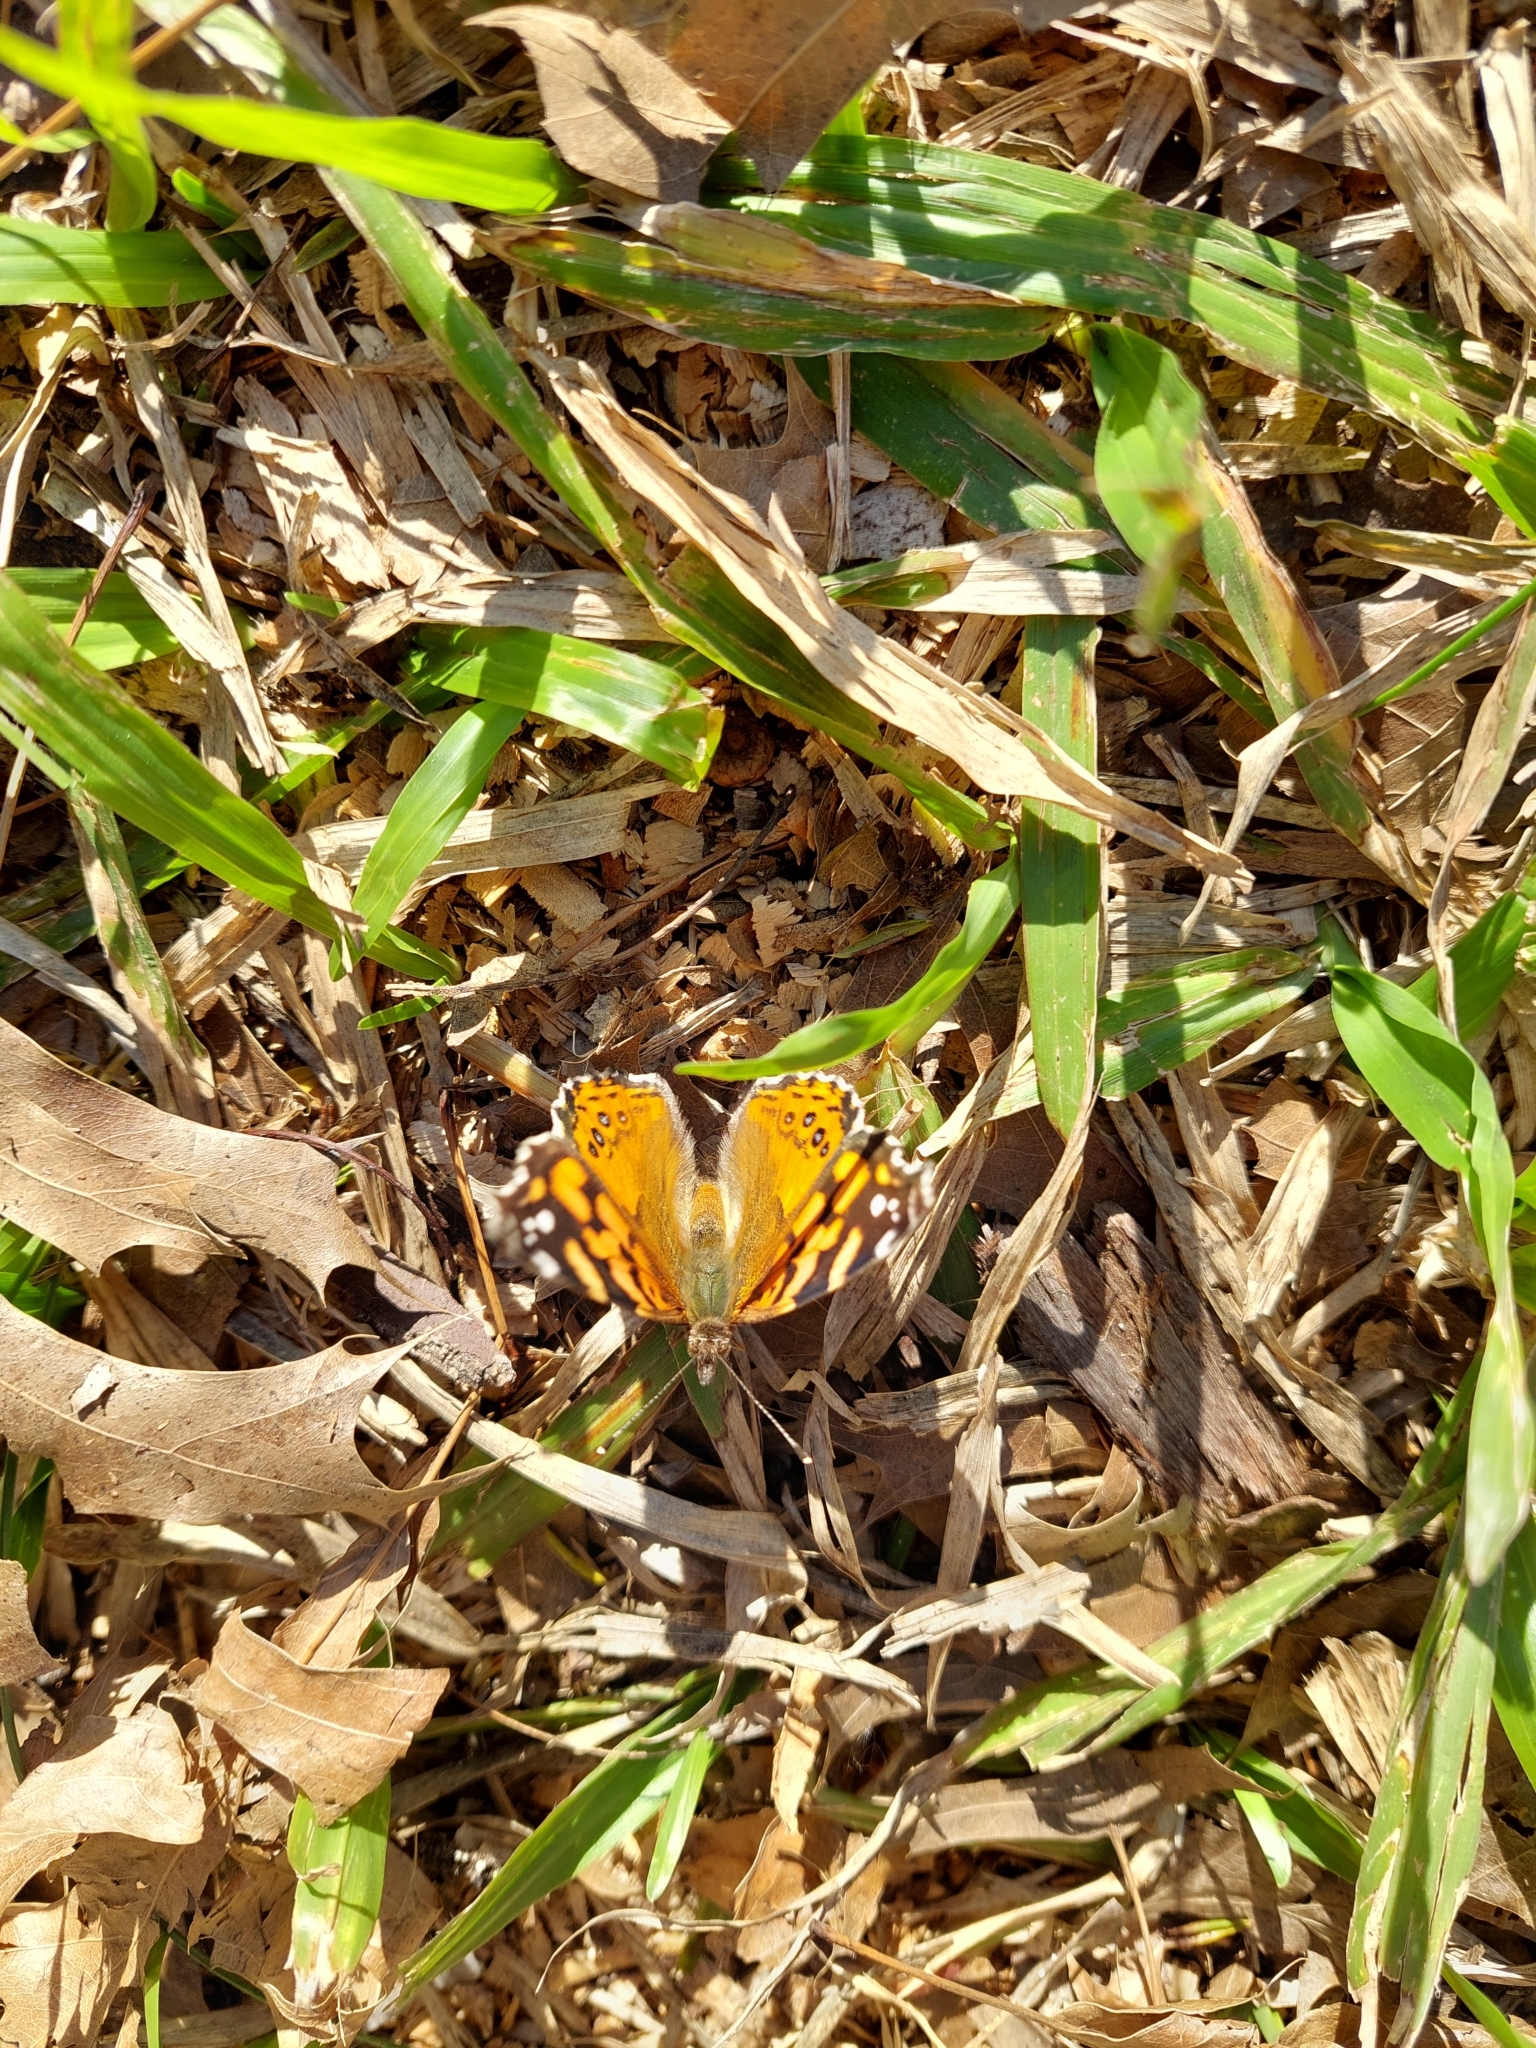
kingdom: Animalia
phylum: Arthropoda
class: Insecta
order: Lepidoptera
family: Nymphalidae
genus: Vanessa
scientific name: Vanessa carye
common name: Subtropical lady
